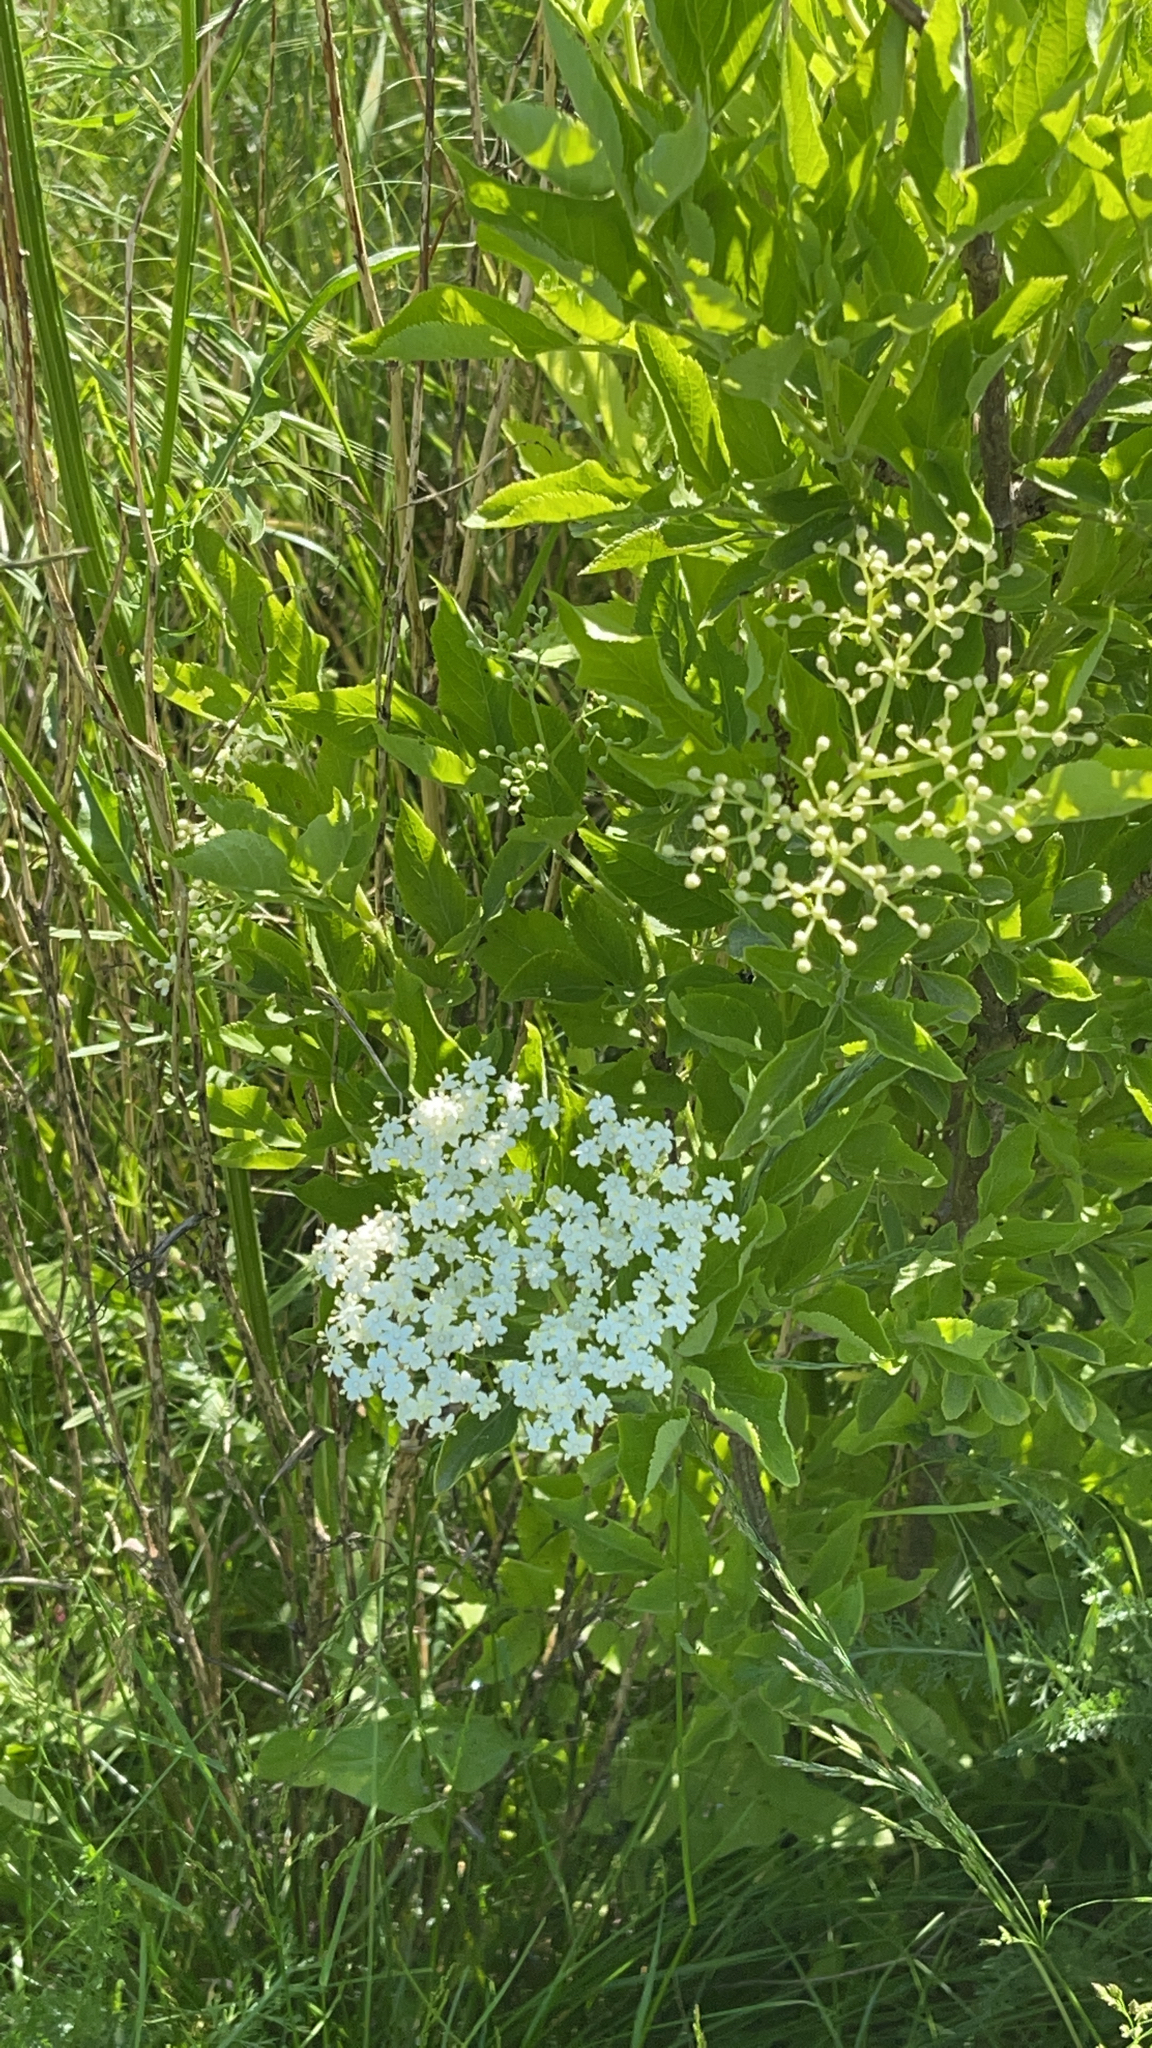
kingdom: Plantae
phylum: Tracheophyta
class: Magnoliopsida
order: Dipsacales
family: Viburnaceae
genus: Sambucus
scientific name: Sambucus nigra
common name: Elder
